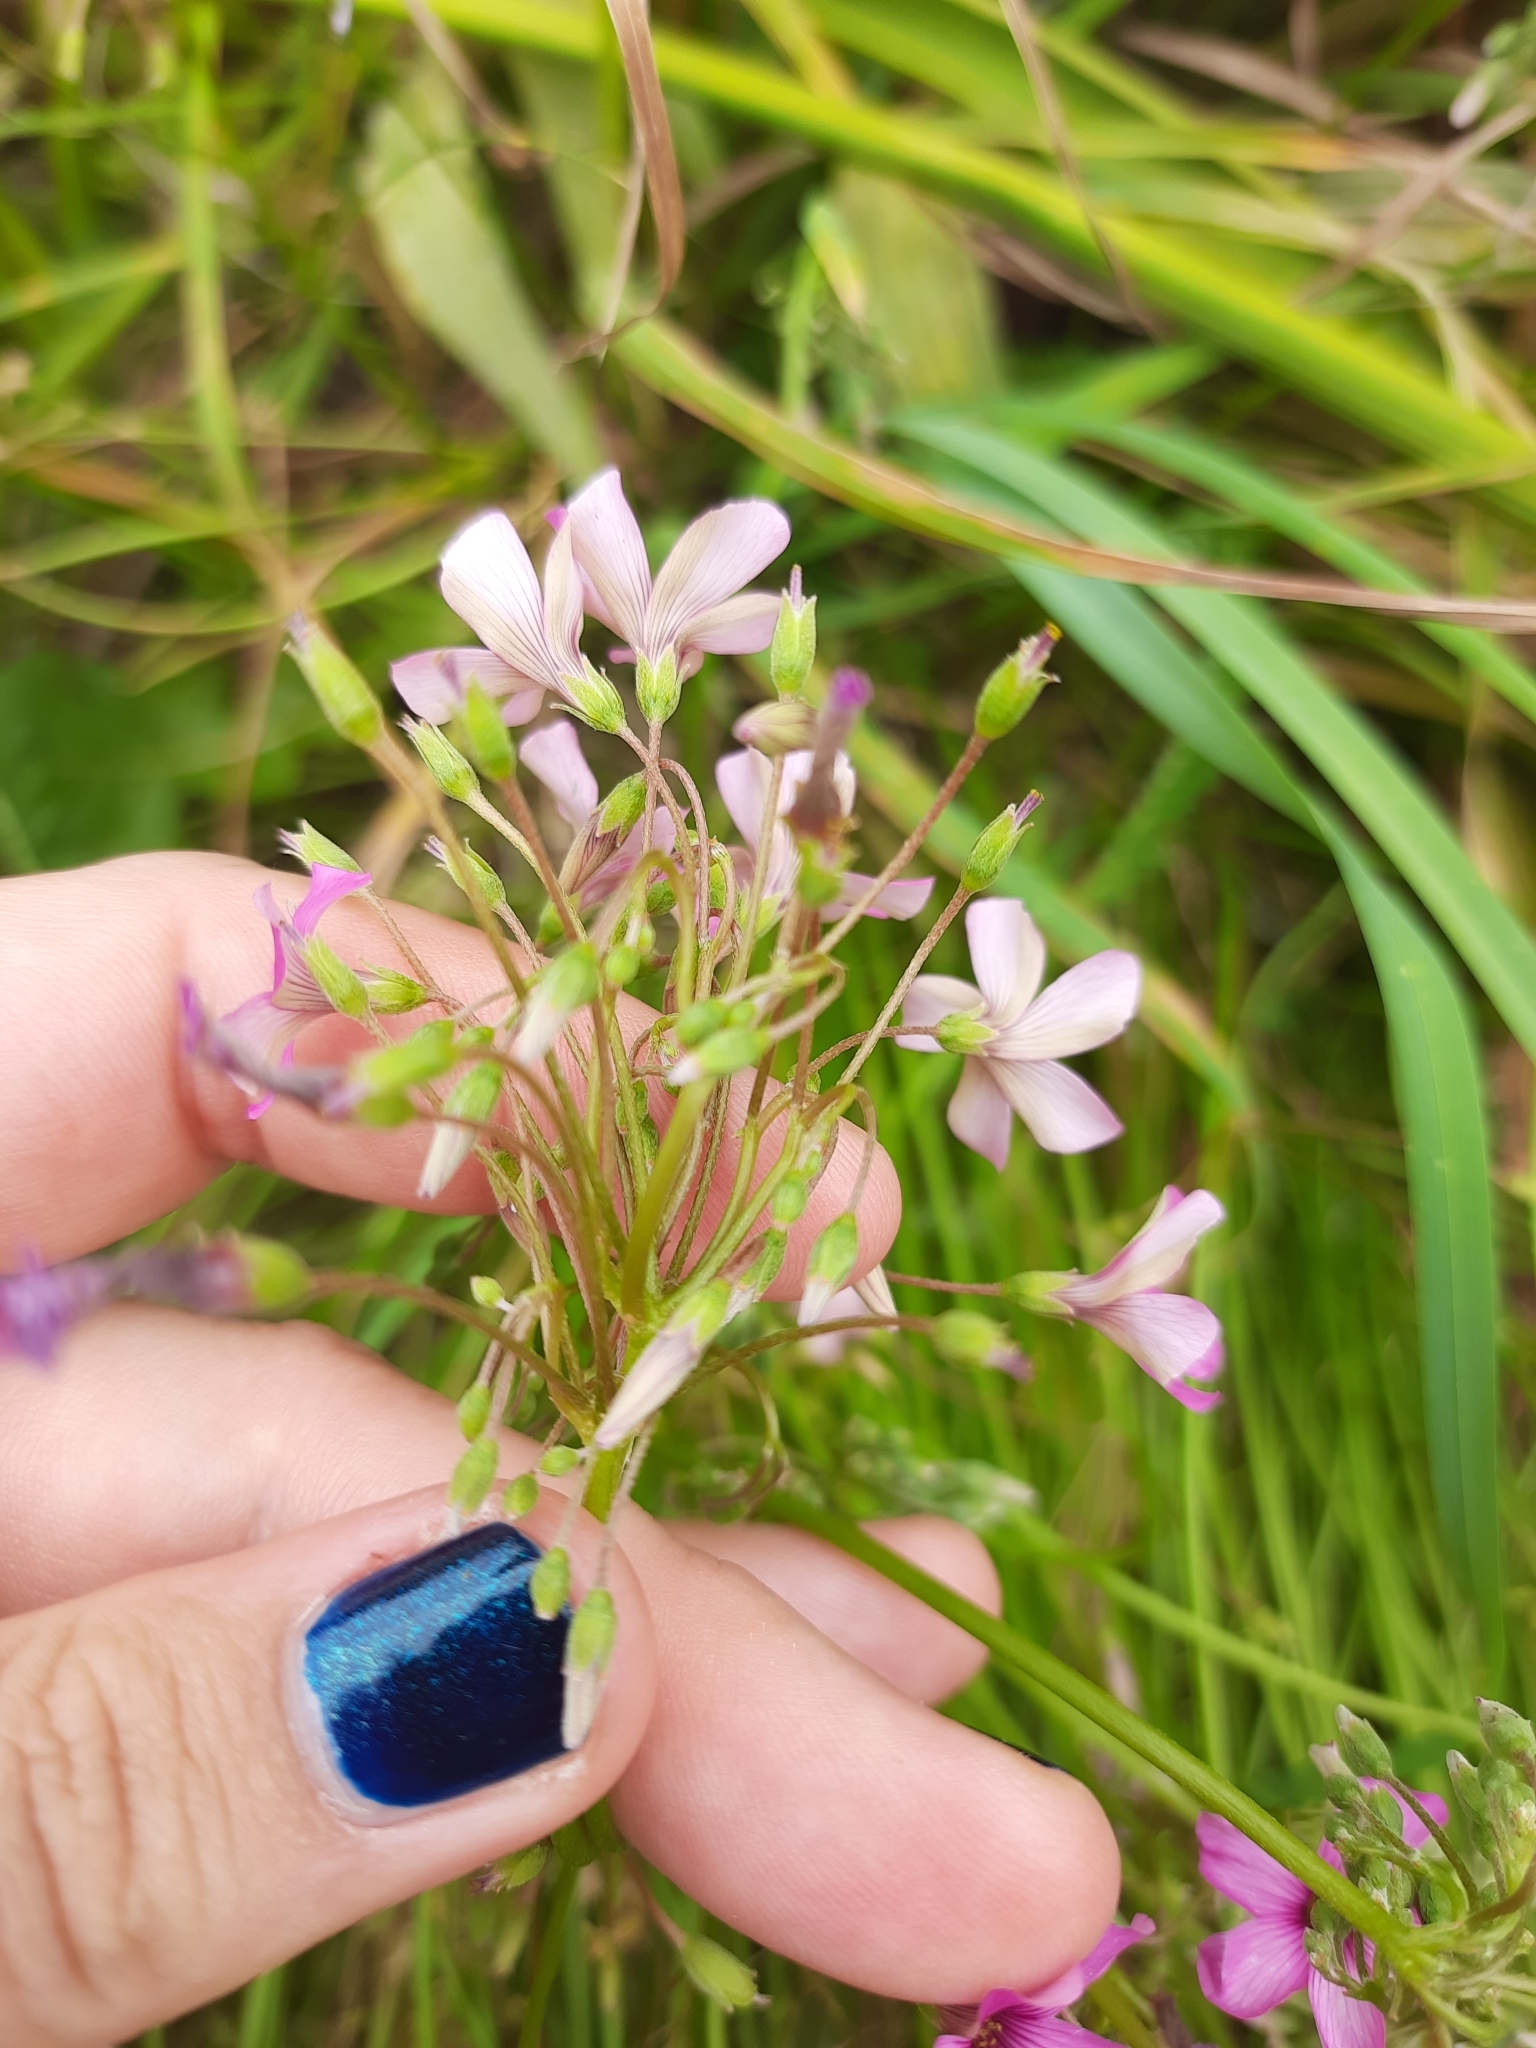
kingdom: Plantae
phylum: Tracheophyta
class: Magnoliopsida
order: Oxalidales
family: Oxalidaceae
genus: Oxalis
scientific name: Oxalis articulata
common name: Pink-sorrel
